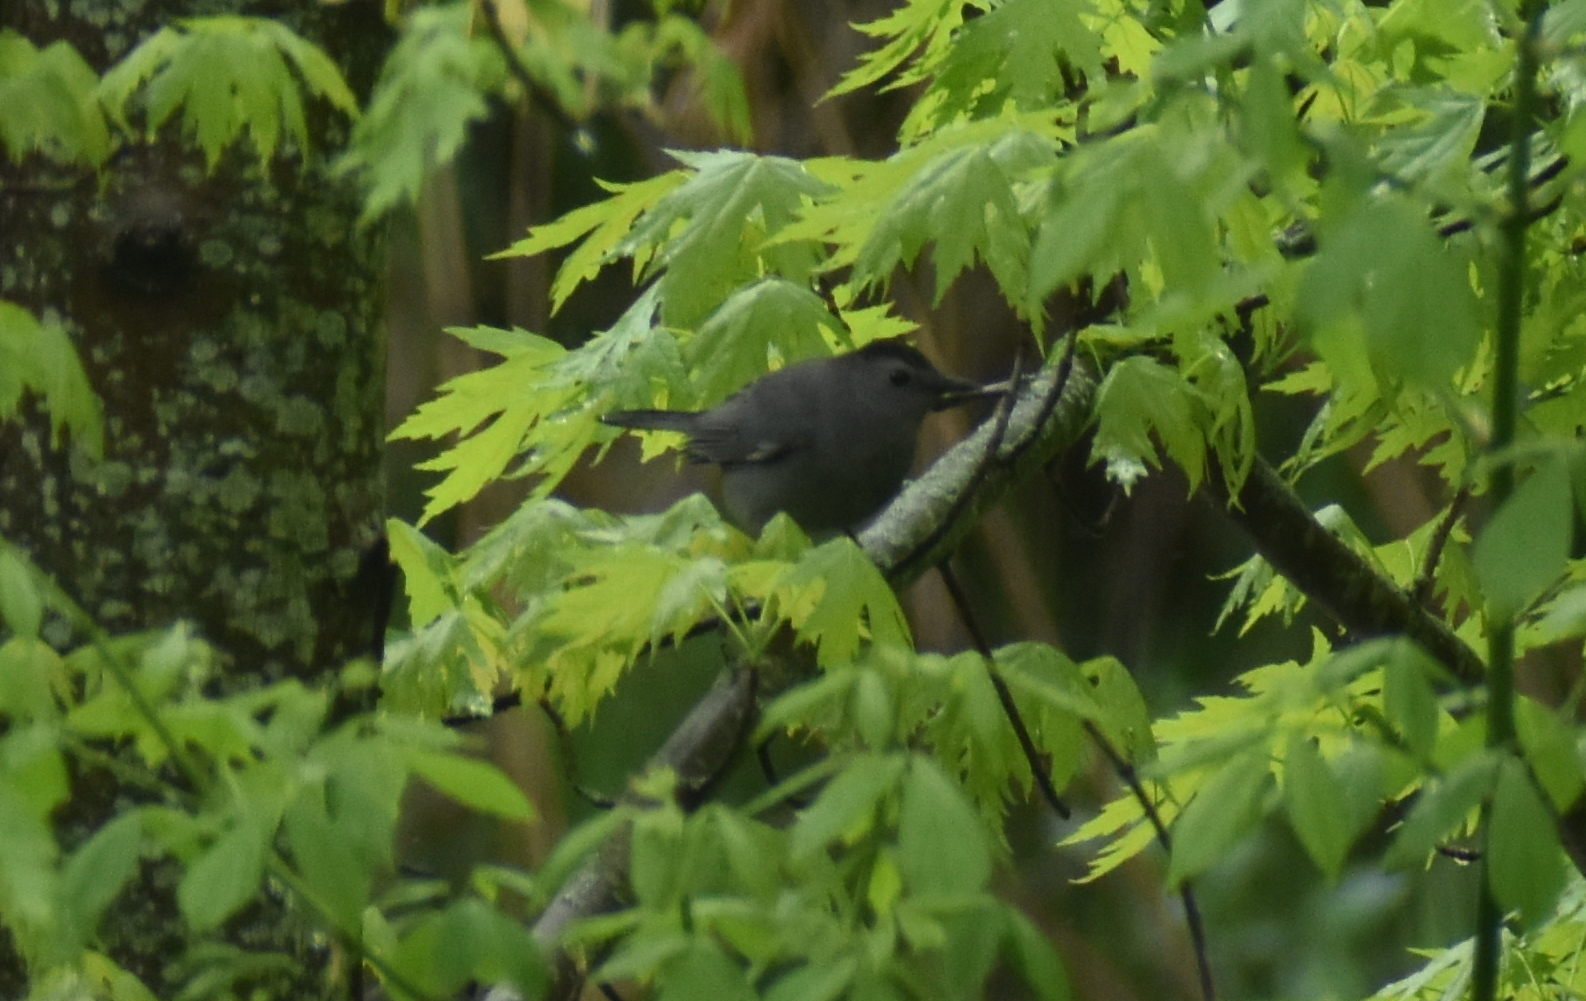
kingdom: Animalia
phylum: Chordata
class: Aves
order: Passeriformes
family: Mimidae
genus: Dumetella
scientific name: Dumetella carolinensis
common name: Gray catbird
